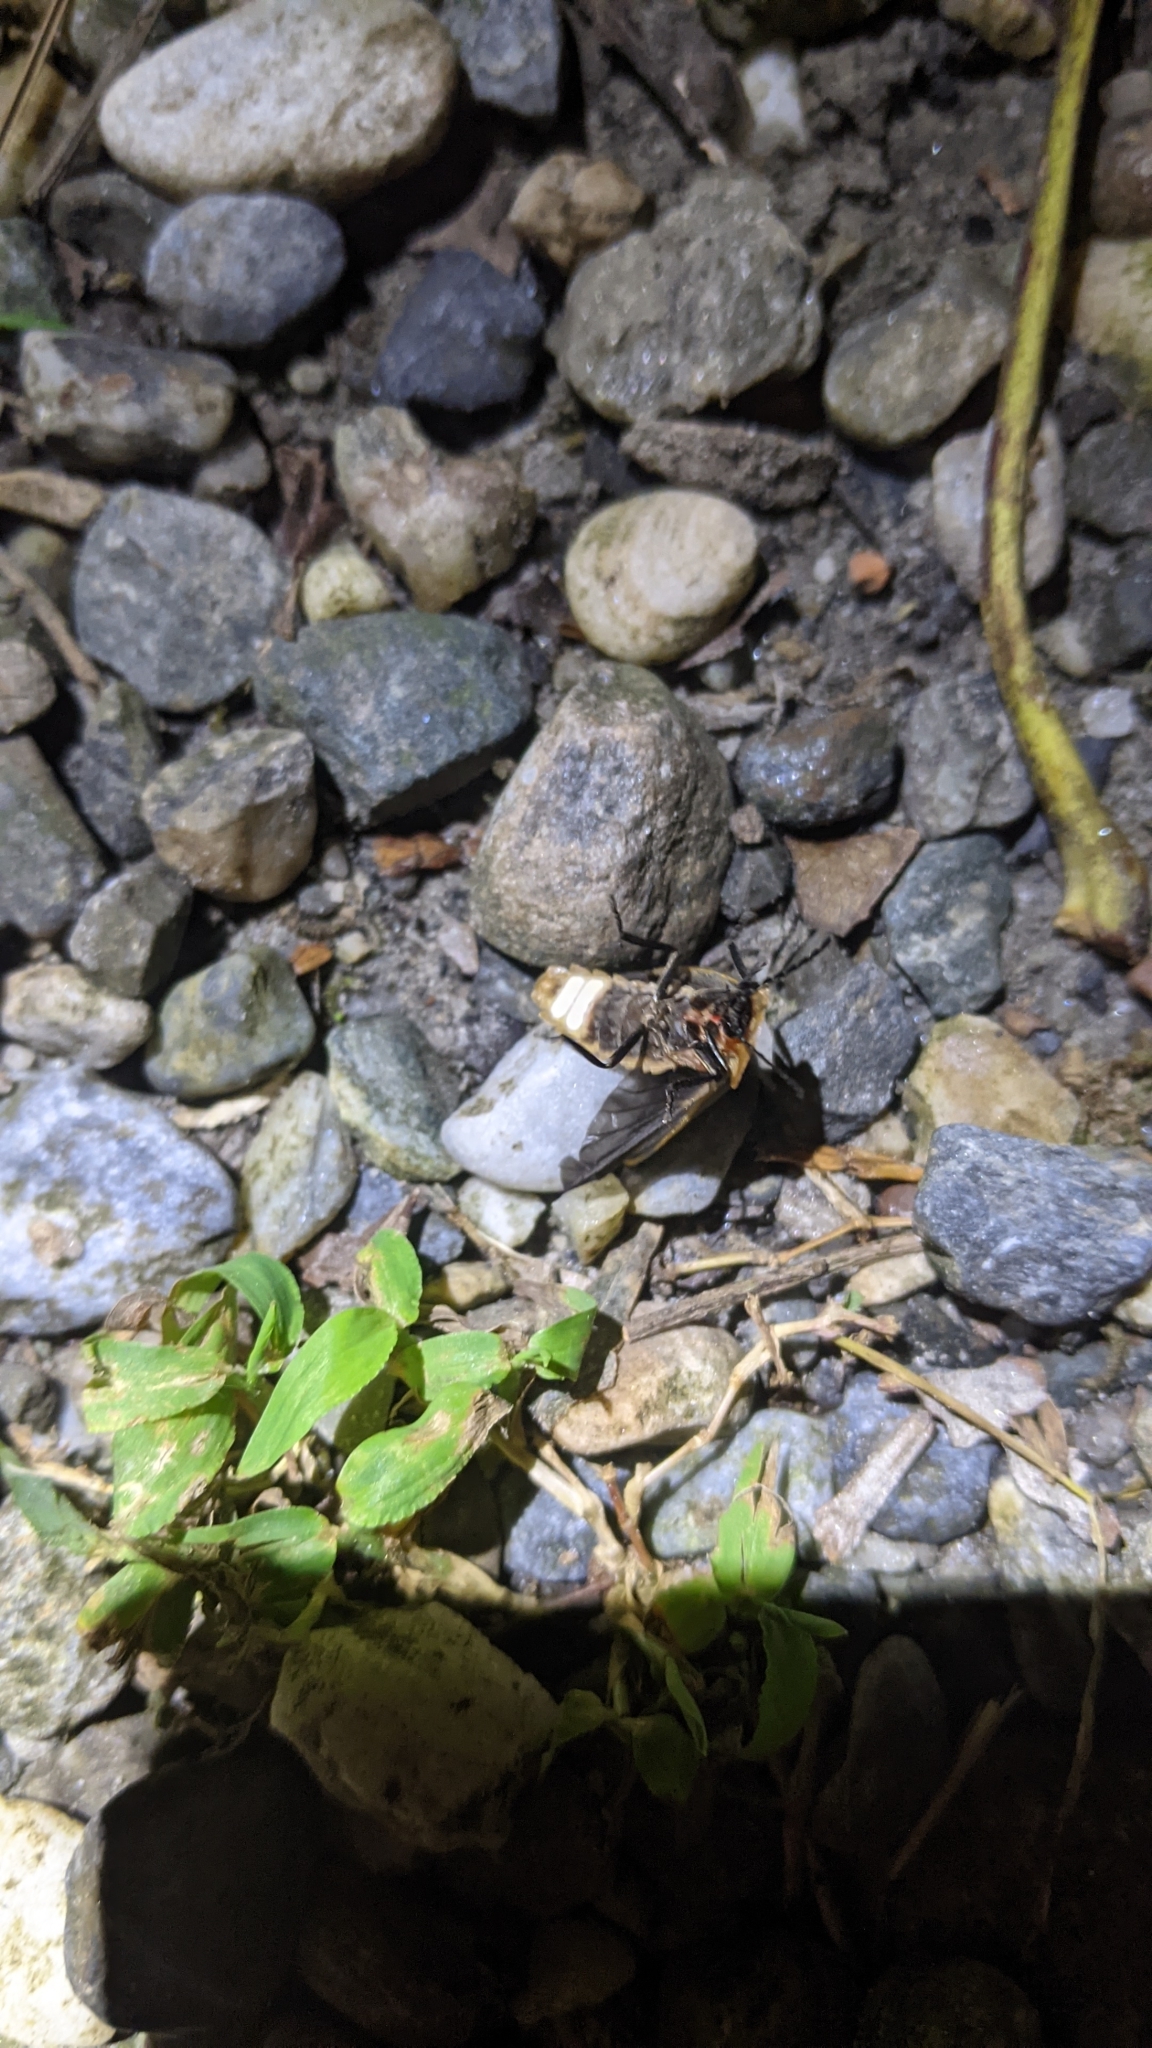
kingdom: Animalia
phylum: Arthropoda
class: Insecta
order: Coleoptera
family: Lampyridae
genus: Pyrocoelia
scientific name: Pyrocoelia praetexta
